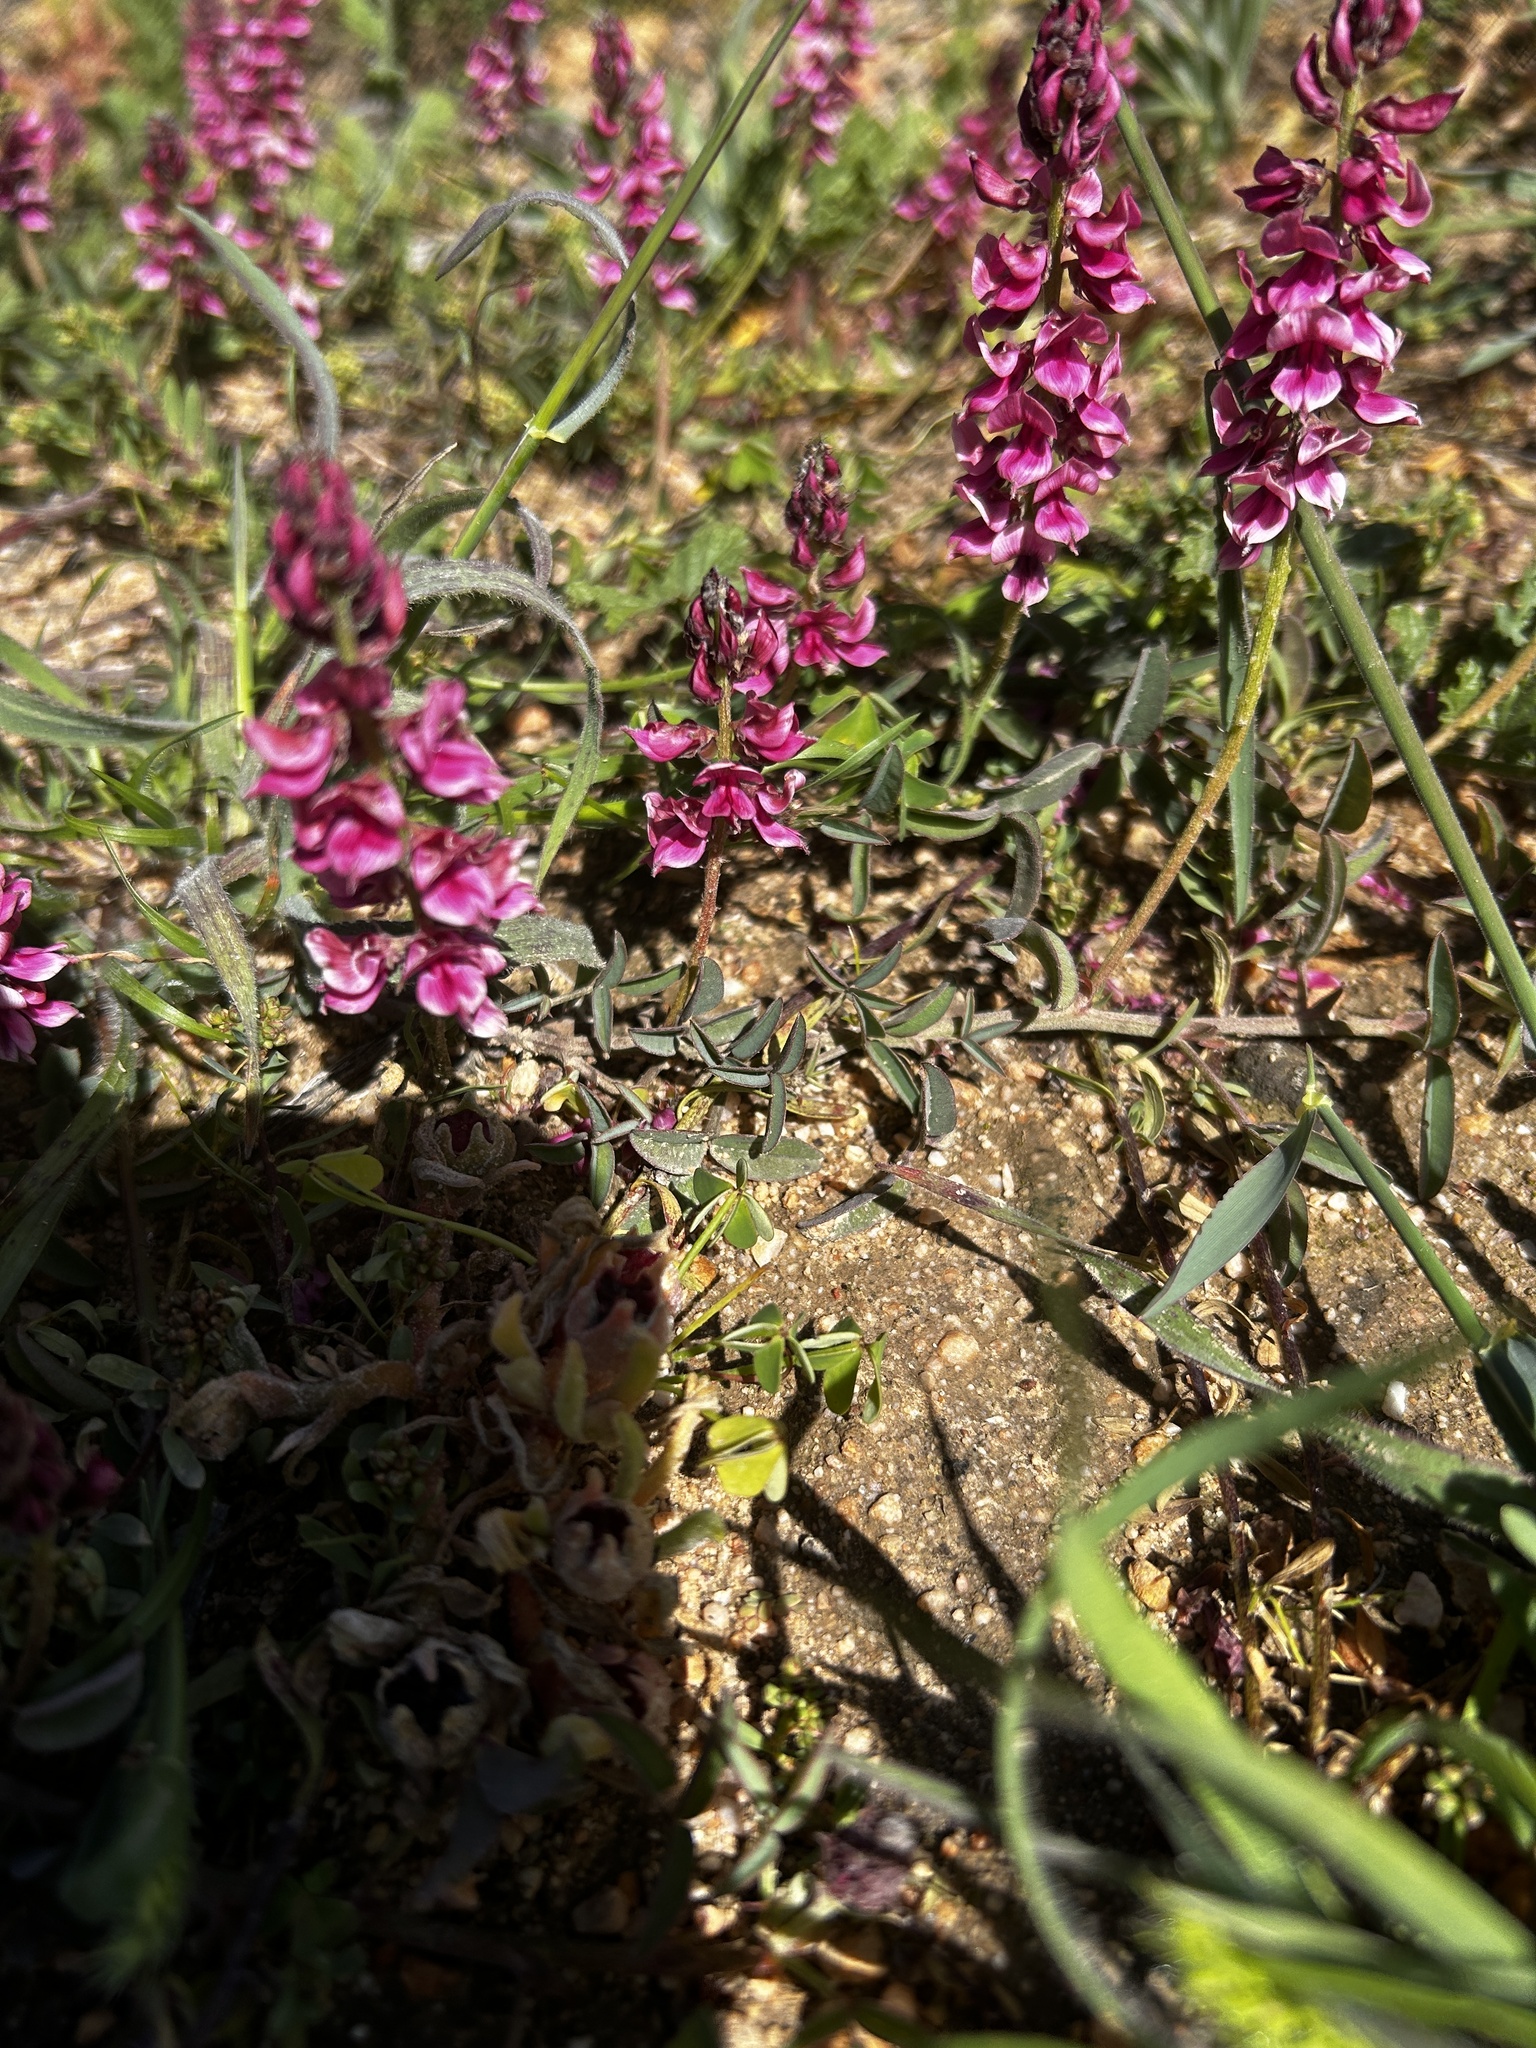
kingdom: Plantae
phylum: Tracheophyta
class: Magnoliopsida
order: Fabales
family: Fabaceae
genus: Indigofera
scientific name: Indigofera amoena
